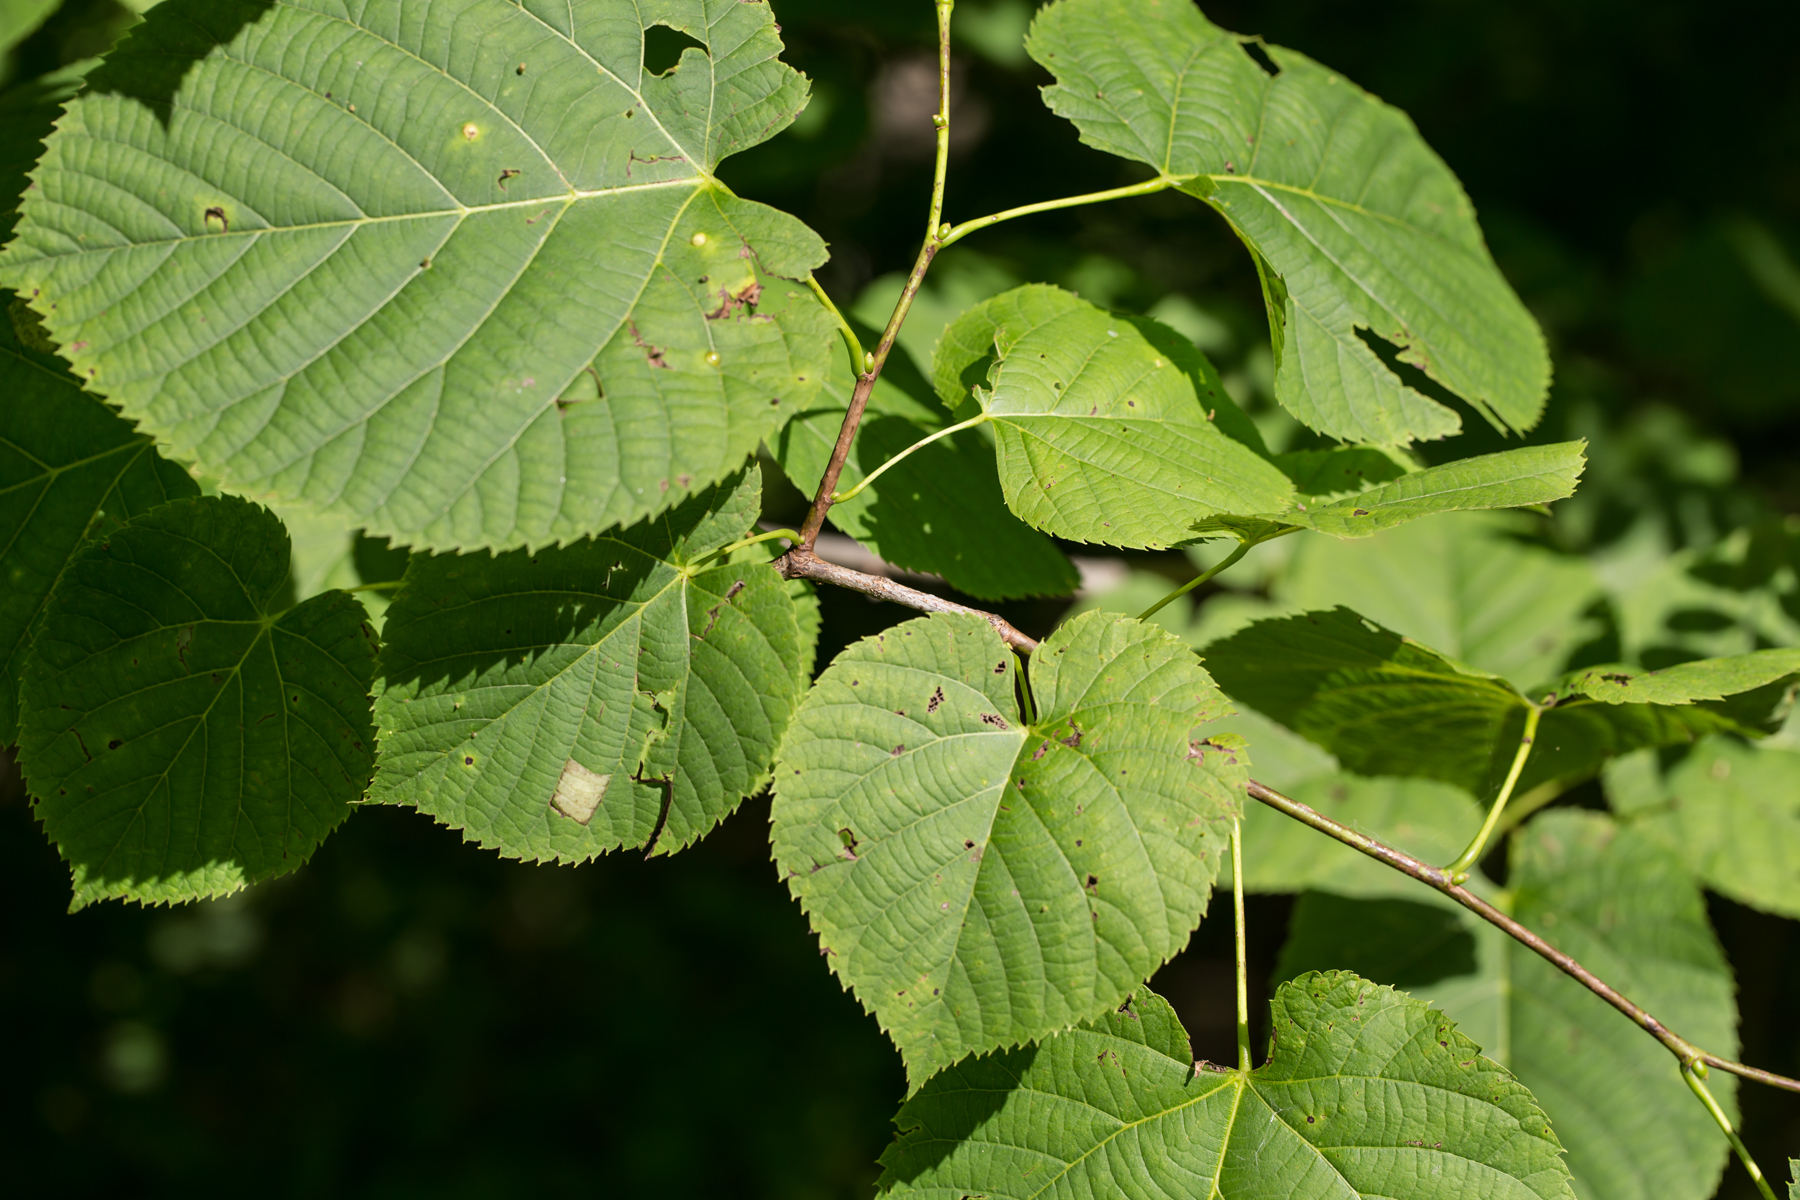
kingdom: Plantae
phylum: Tracheophyta
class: Magnoliopsida
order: Malvales
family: Malvaceae
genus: Tilia
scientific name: Tilia americana
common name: Basswood
